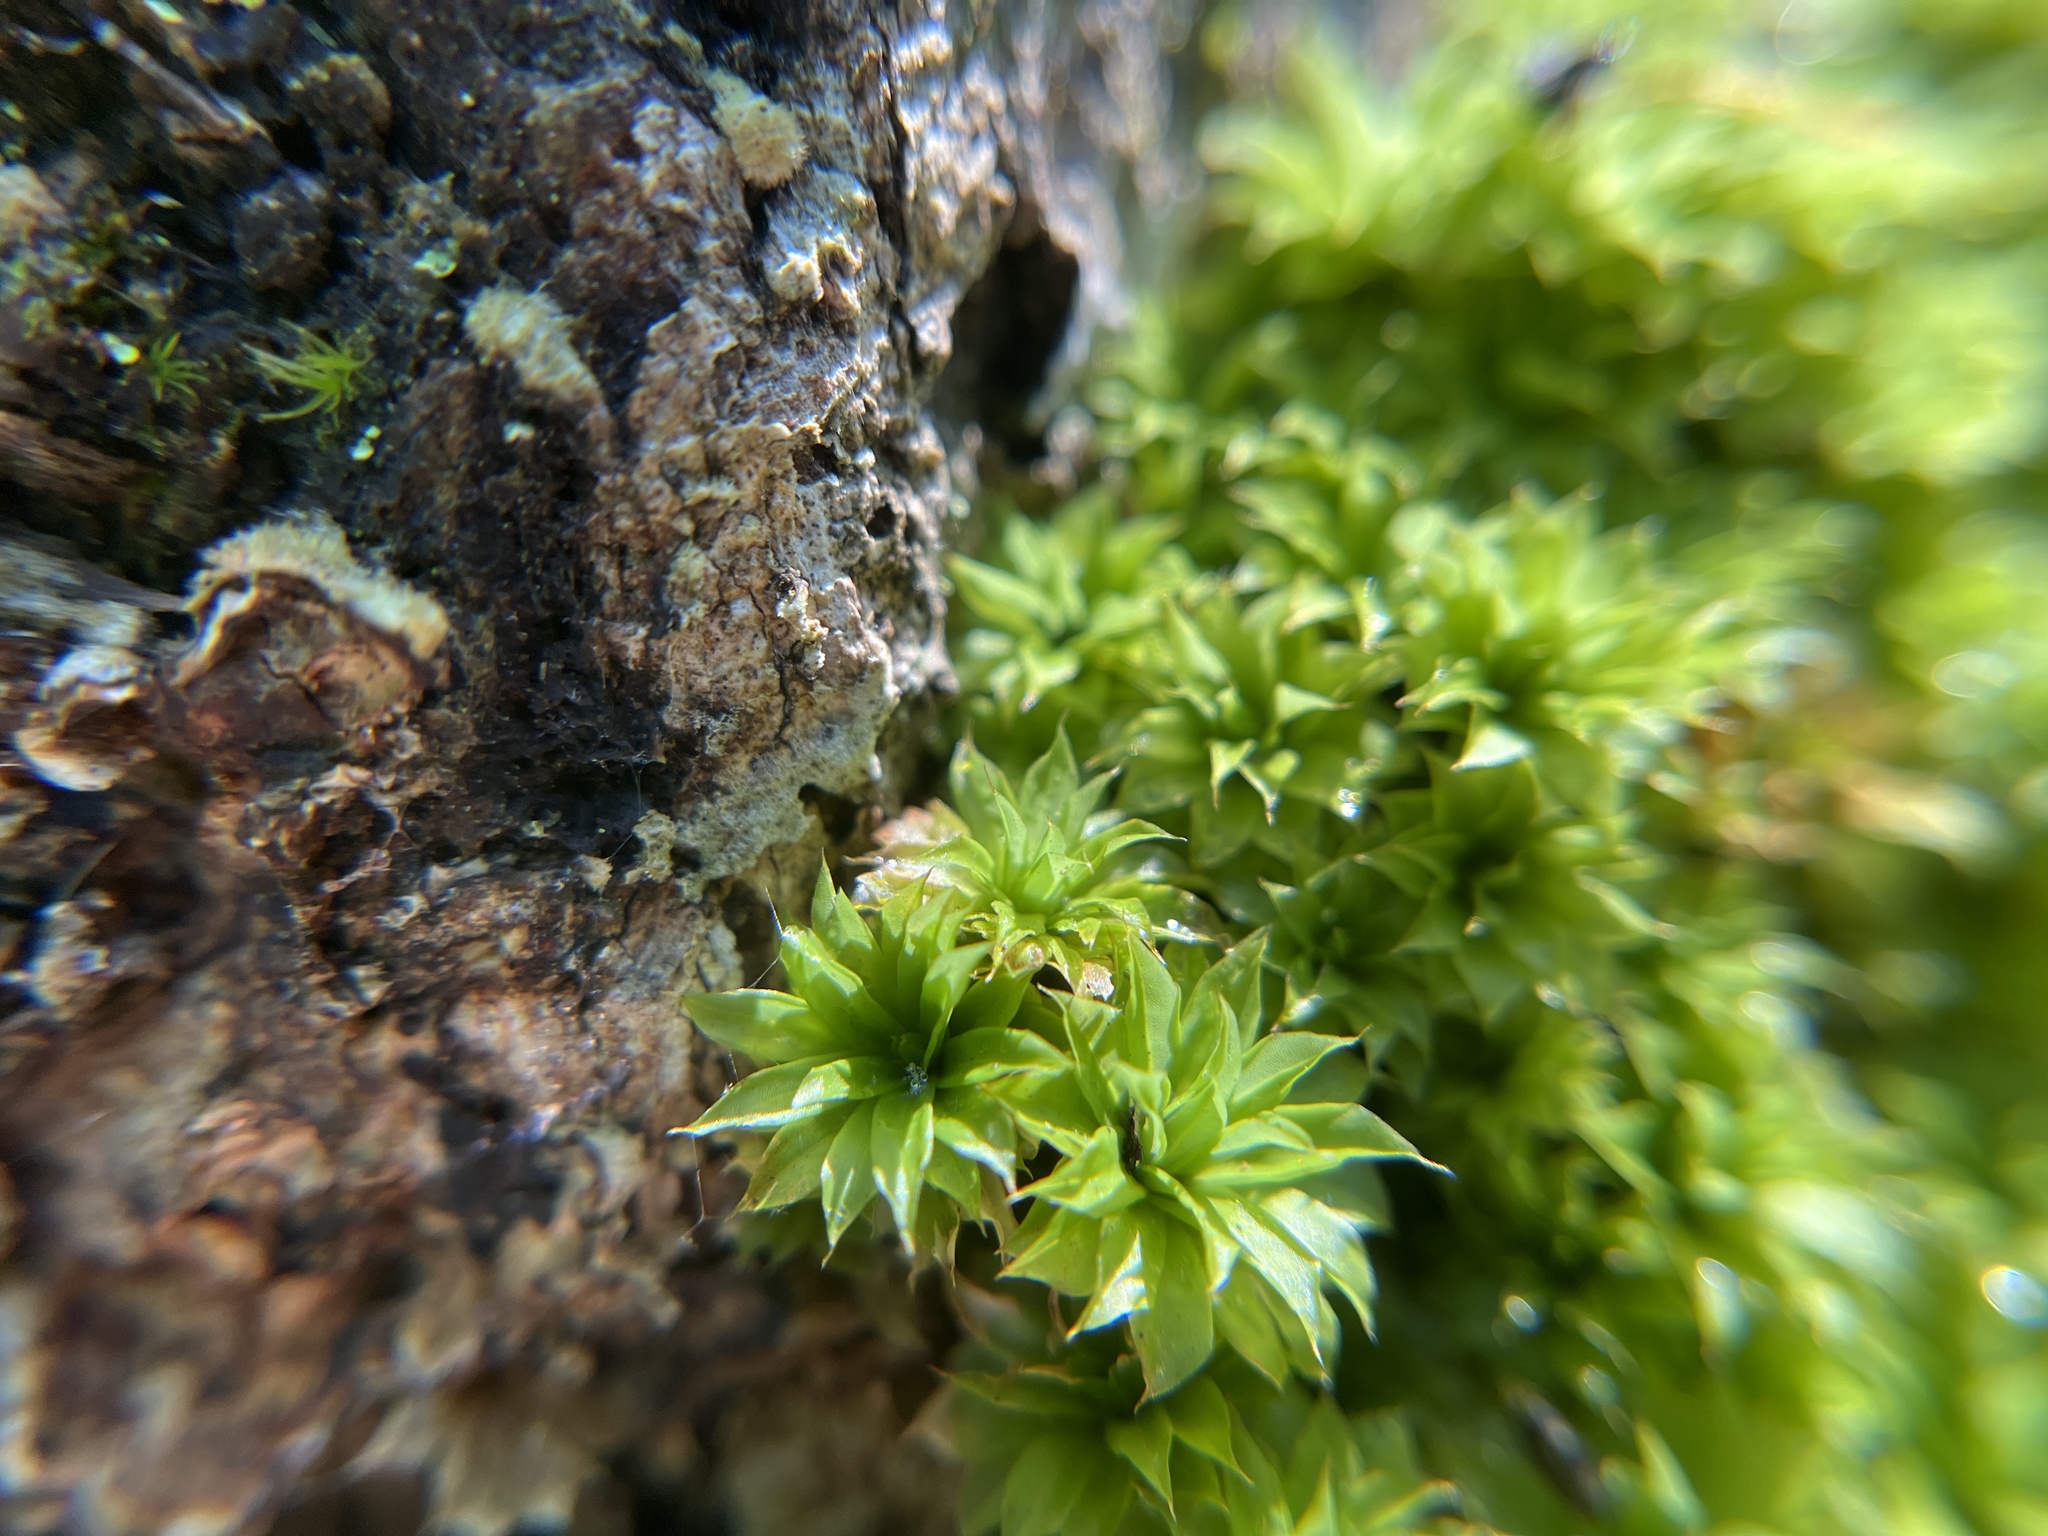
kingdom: Plantae
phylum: Bryophyta
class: Bryopsida
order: Bryales
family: Bryaceae
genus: Rhodobryum
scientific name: Rhodobryum ontariense
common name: Ontario rhodobryum moss
